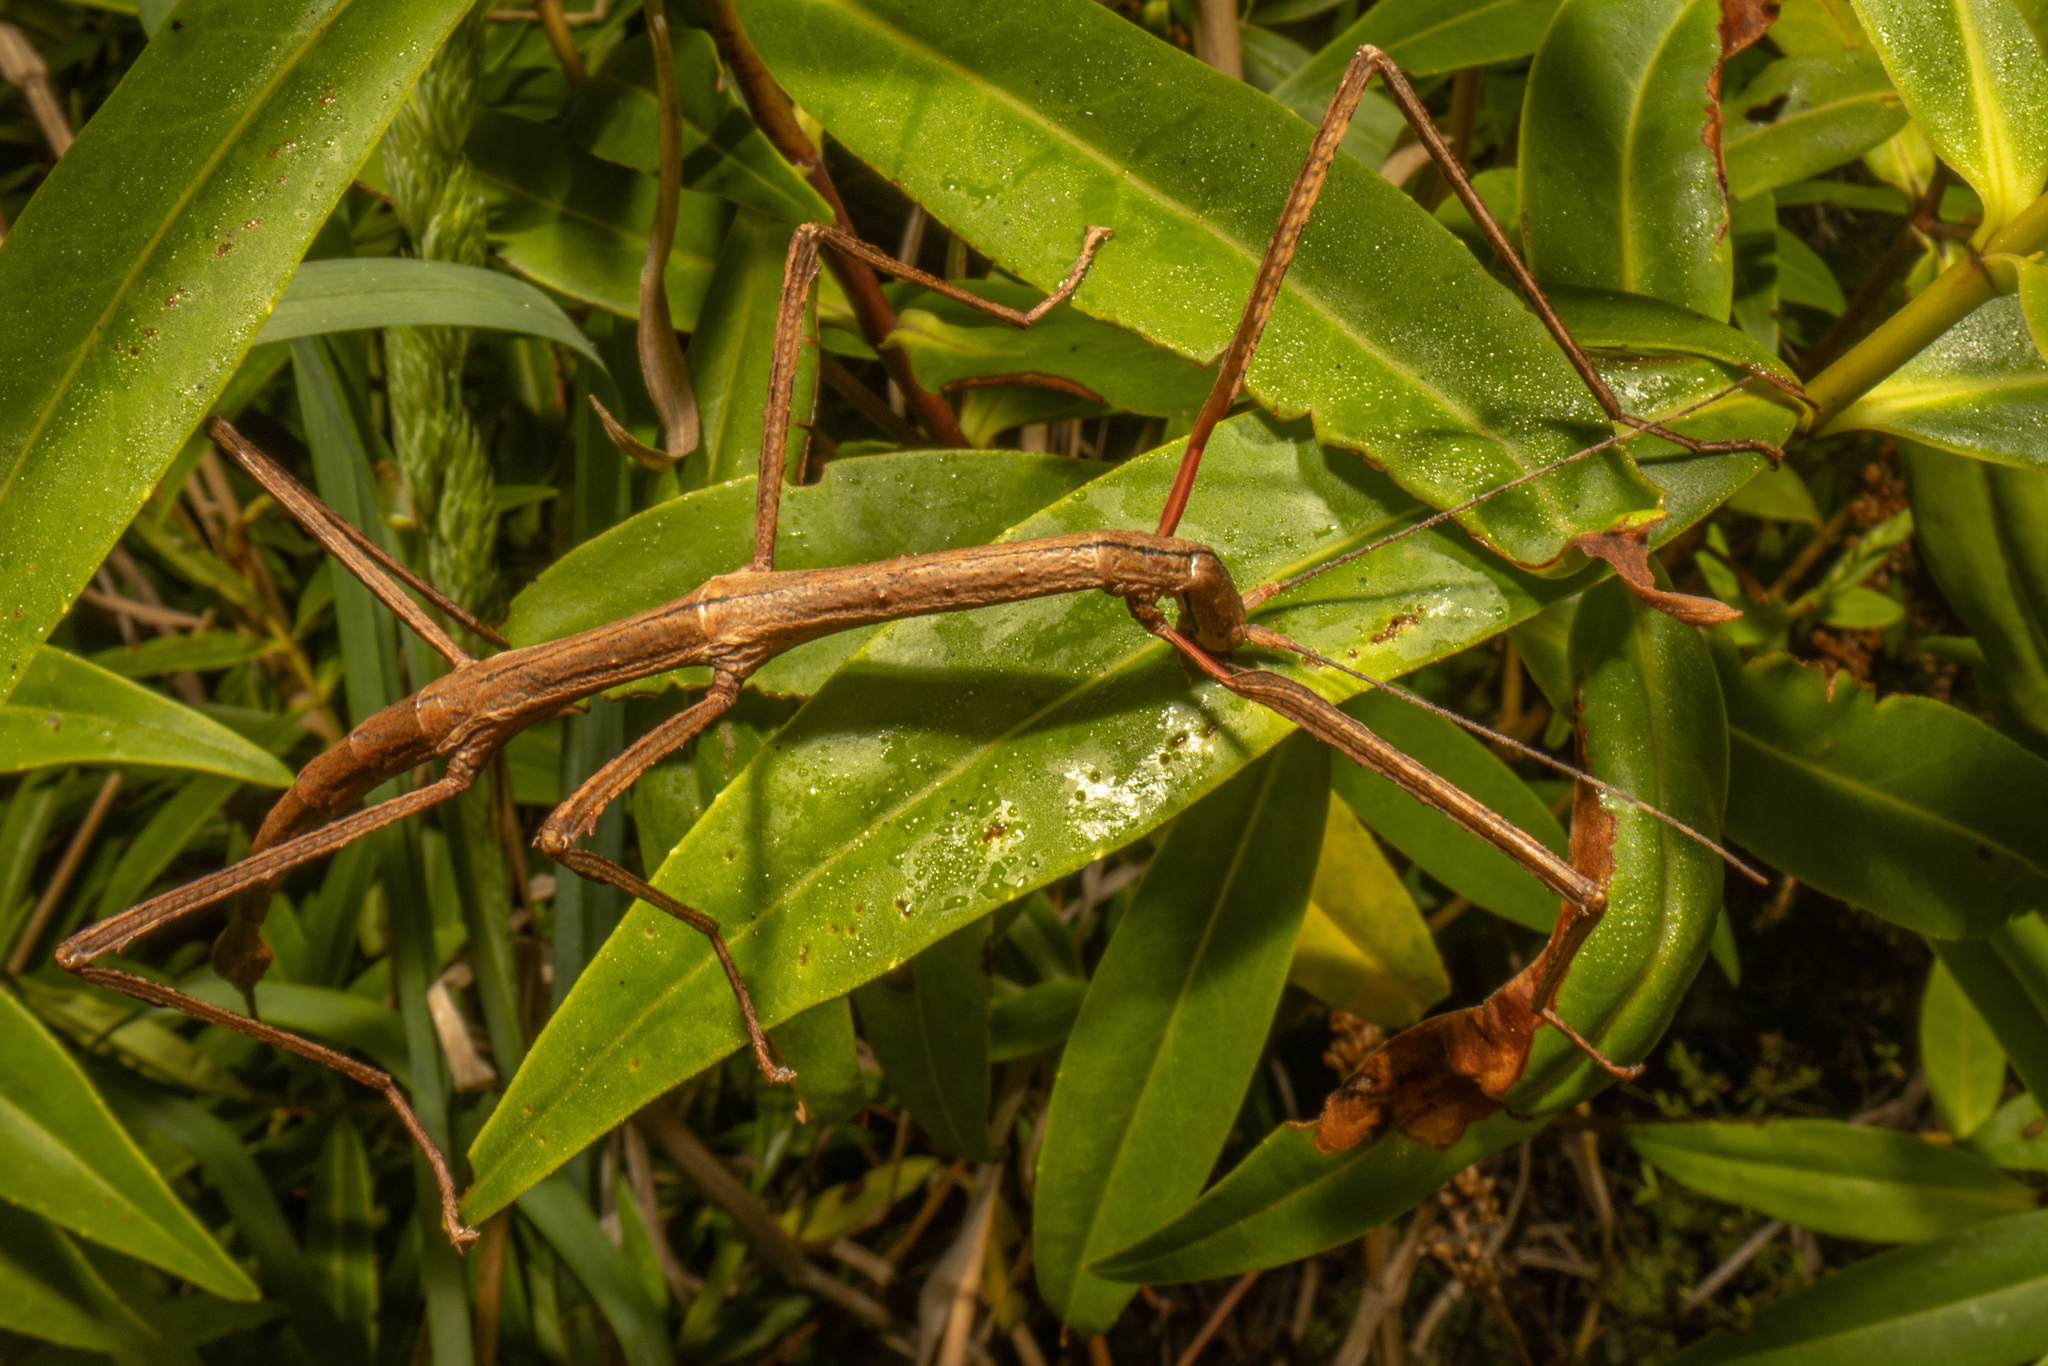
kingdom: Animalia
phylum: Arthropoda
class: Insecta
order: Phasmida
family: Phasmatidae
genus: Clitarchus
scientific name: Clitarchus hookeri
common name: Smooth stick insect
